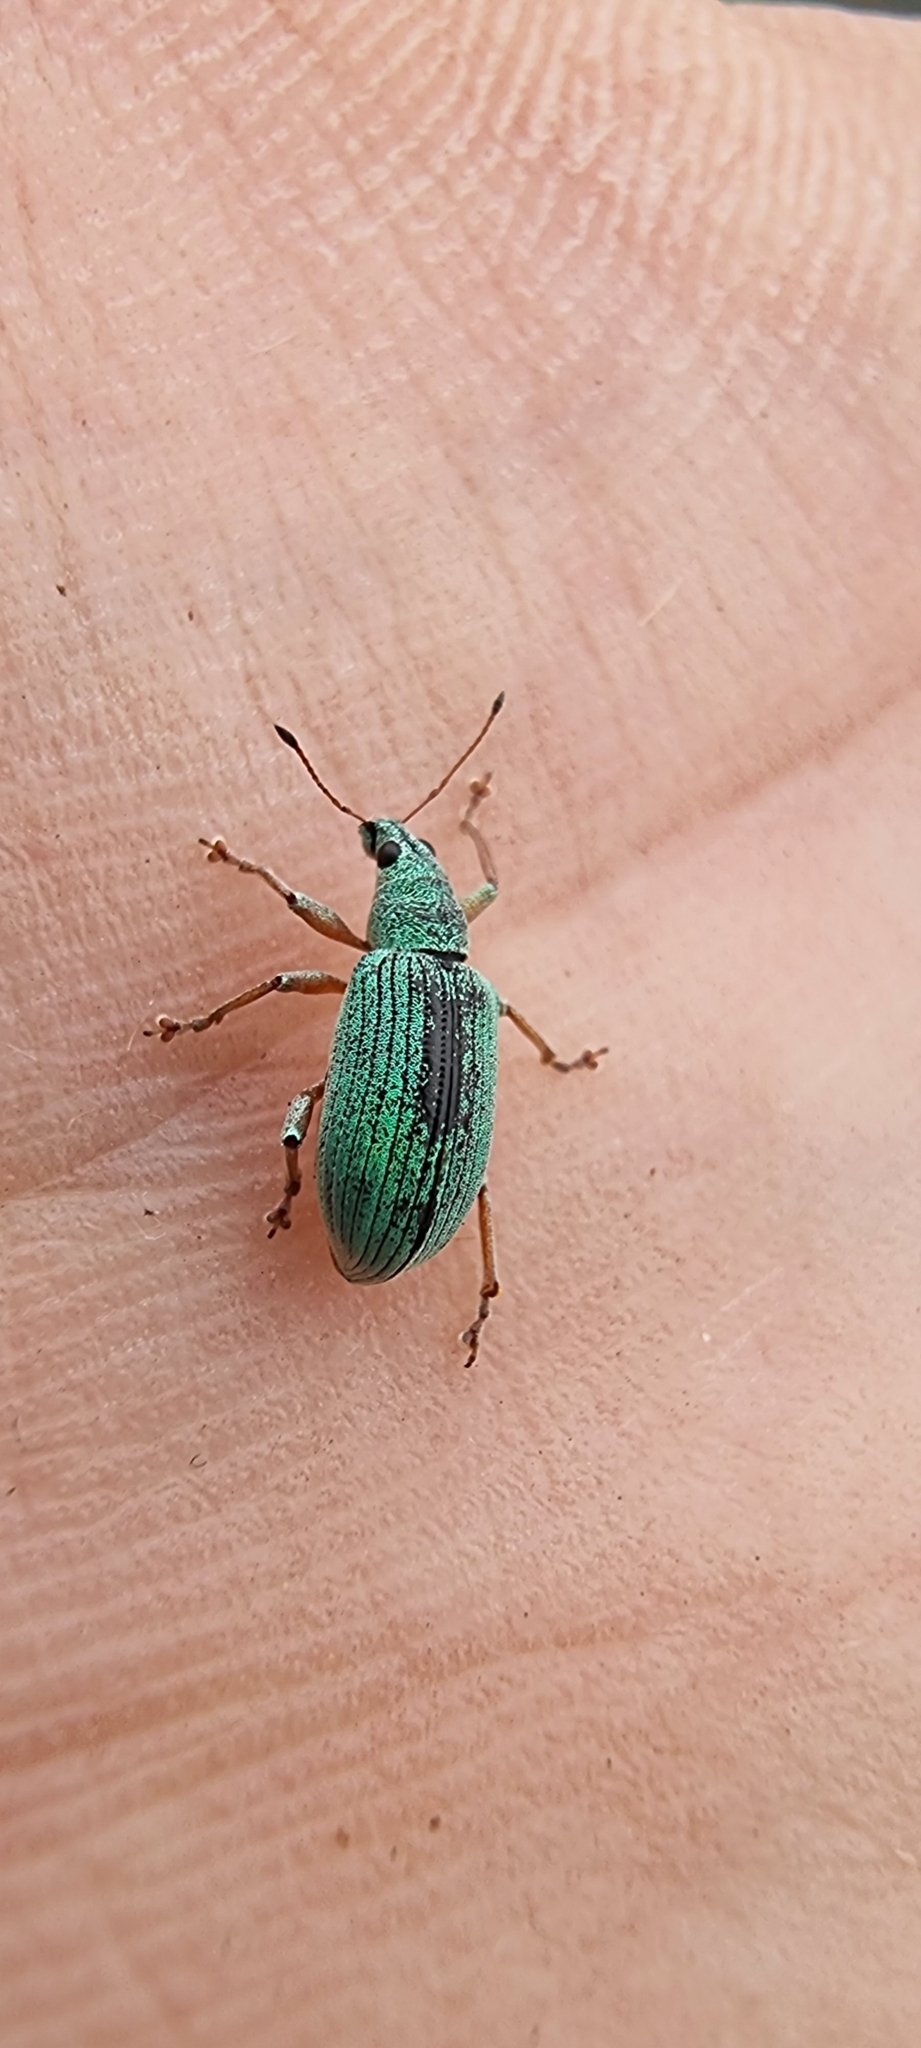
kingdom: Animalia
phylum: Arthropoda
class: Insecta
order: Coleoptera
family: Curculionidae
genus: Polydrusus
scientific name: Polydrusus formosus
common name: Weevil
